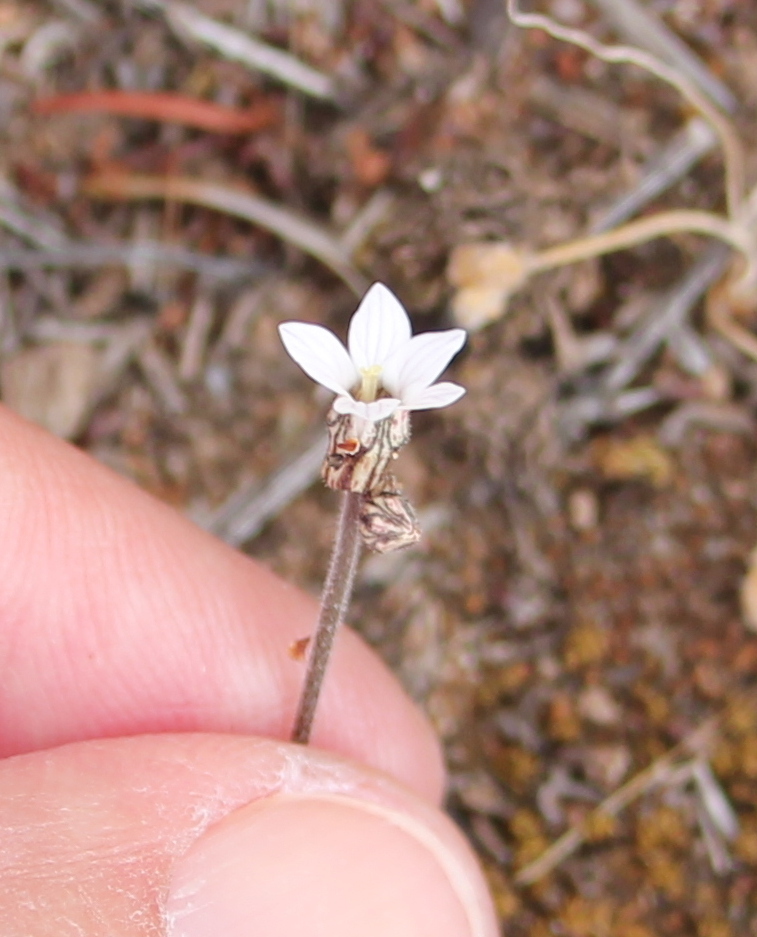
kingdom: Plantae
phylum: Tracheophyta
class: Magnoliopsida
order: Saxifragales
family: Saxifragaceae
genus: Jepsonia
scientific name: Jepsonia parryi
